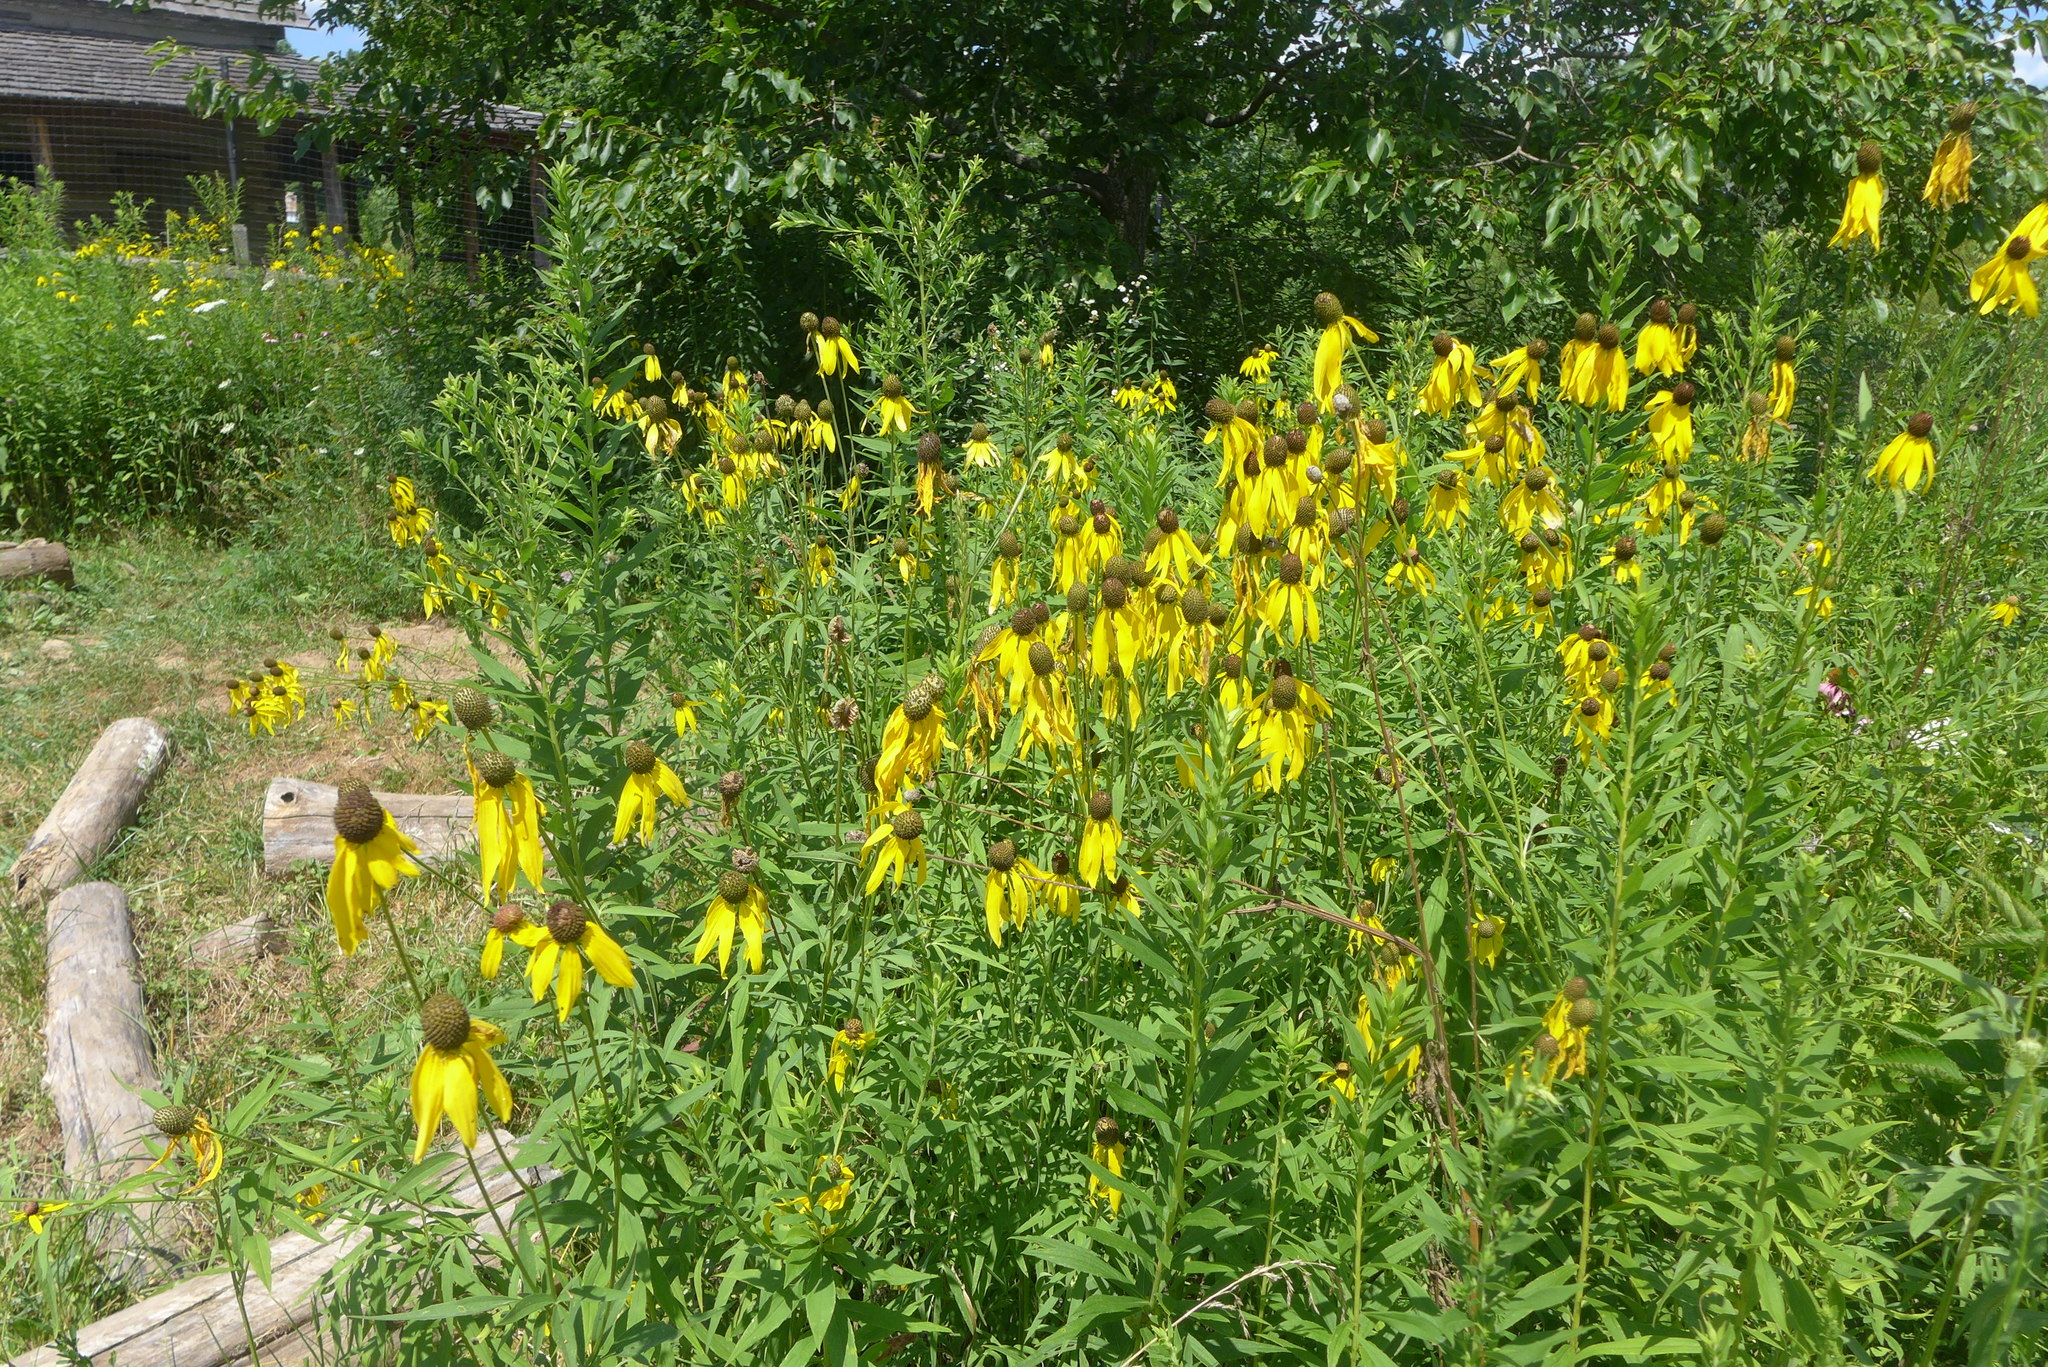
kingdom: Plantae
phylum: Tracheophyta
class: Magnoliopsida
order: Asterales
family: Asteraceae
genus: Ratibida
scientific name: Ratibida pinnata
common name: Drooping prairie-coneflower
